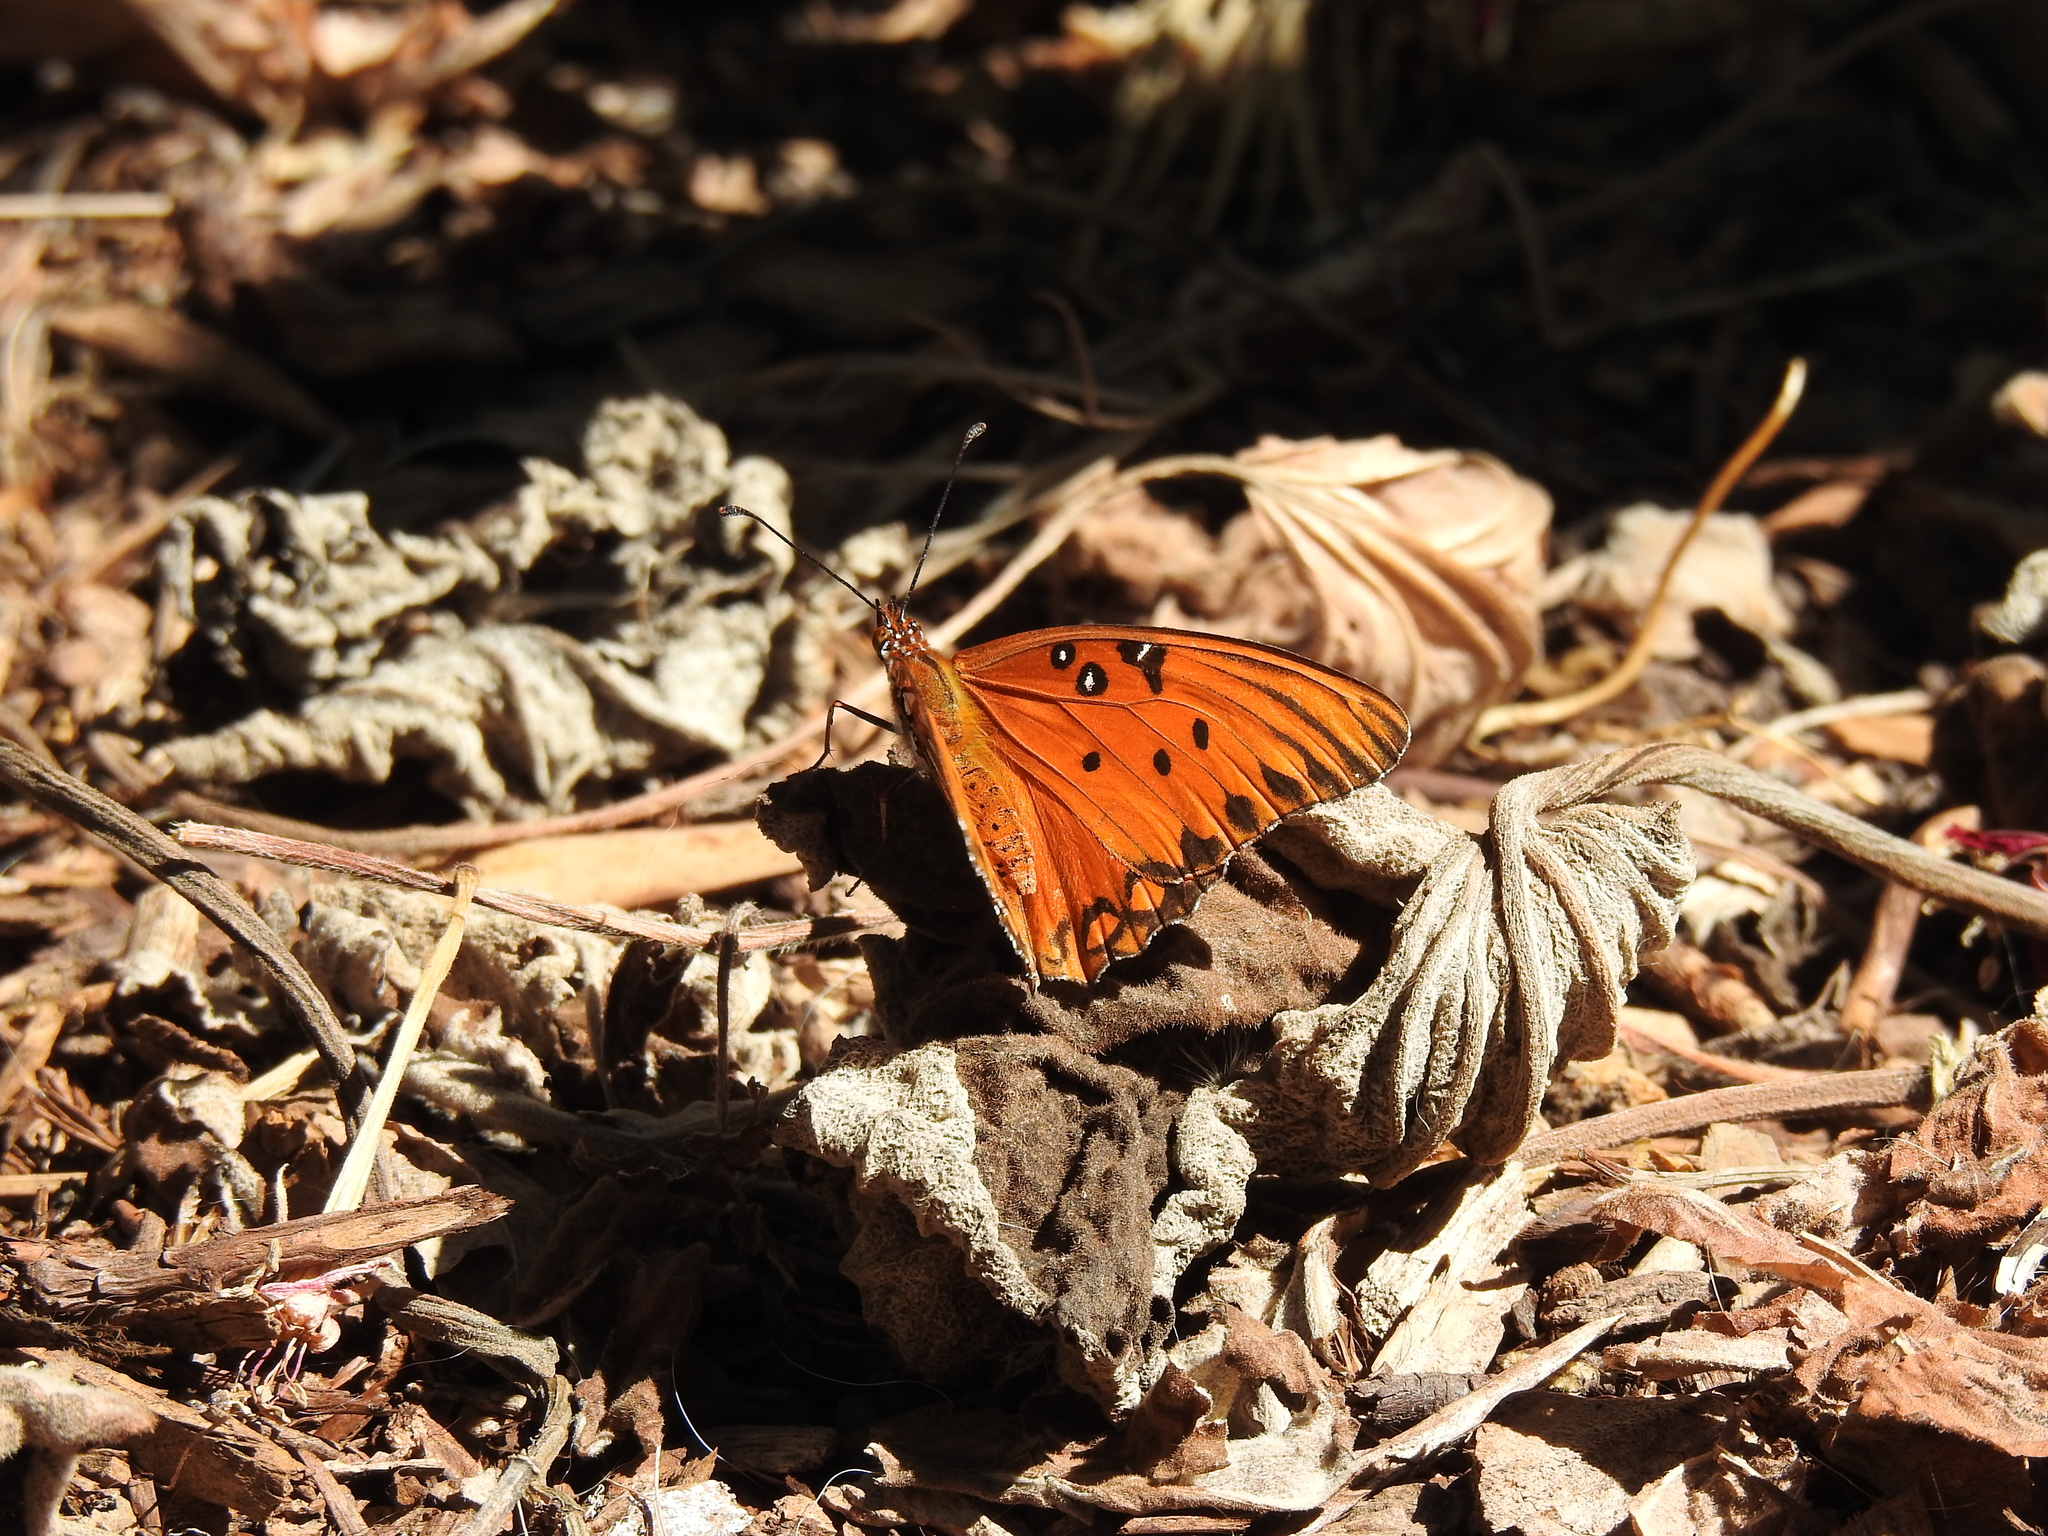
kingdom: Animalia
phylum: Arthropoda
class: Insecta
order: Lepidoptera
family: Nymphalidae
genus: Dione
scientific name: Dione vanillae
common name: Gulf fritillary
